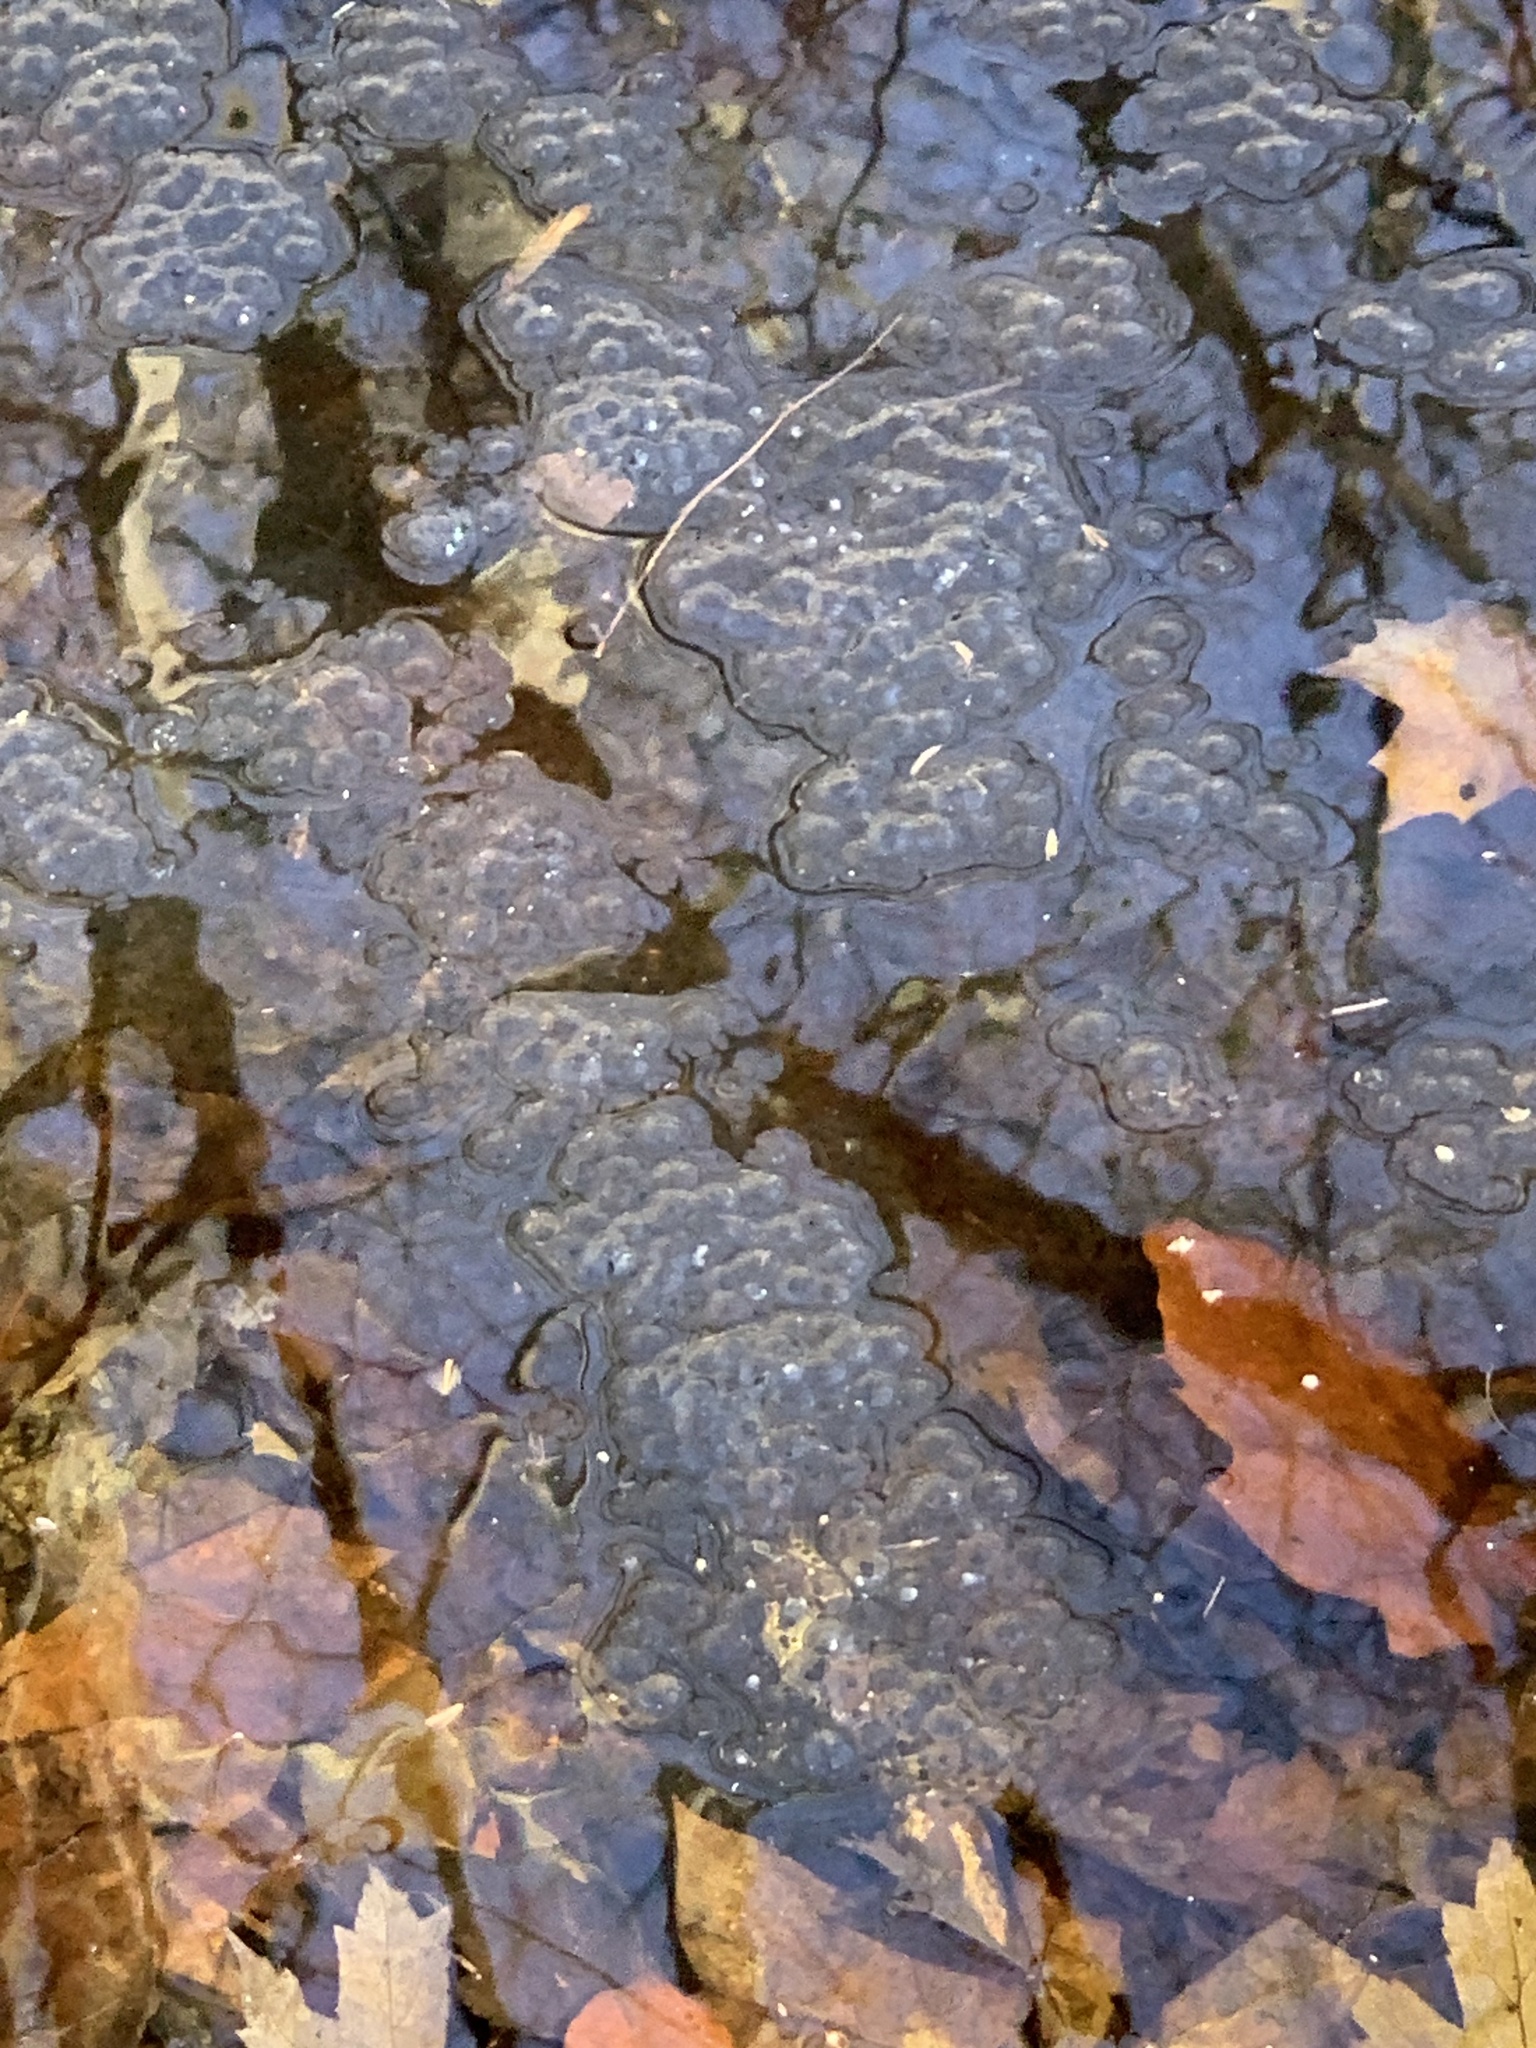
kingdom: Animalia
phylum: Chordata
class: Amphibia
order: Anura
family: Ranidae
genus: Lithobates
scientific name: Lithobates sylvaticus
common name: Wood frog
